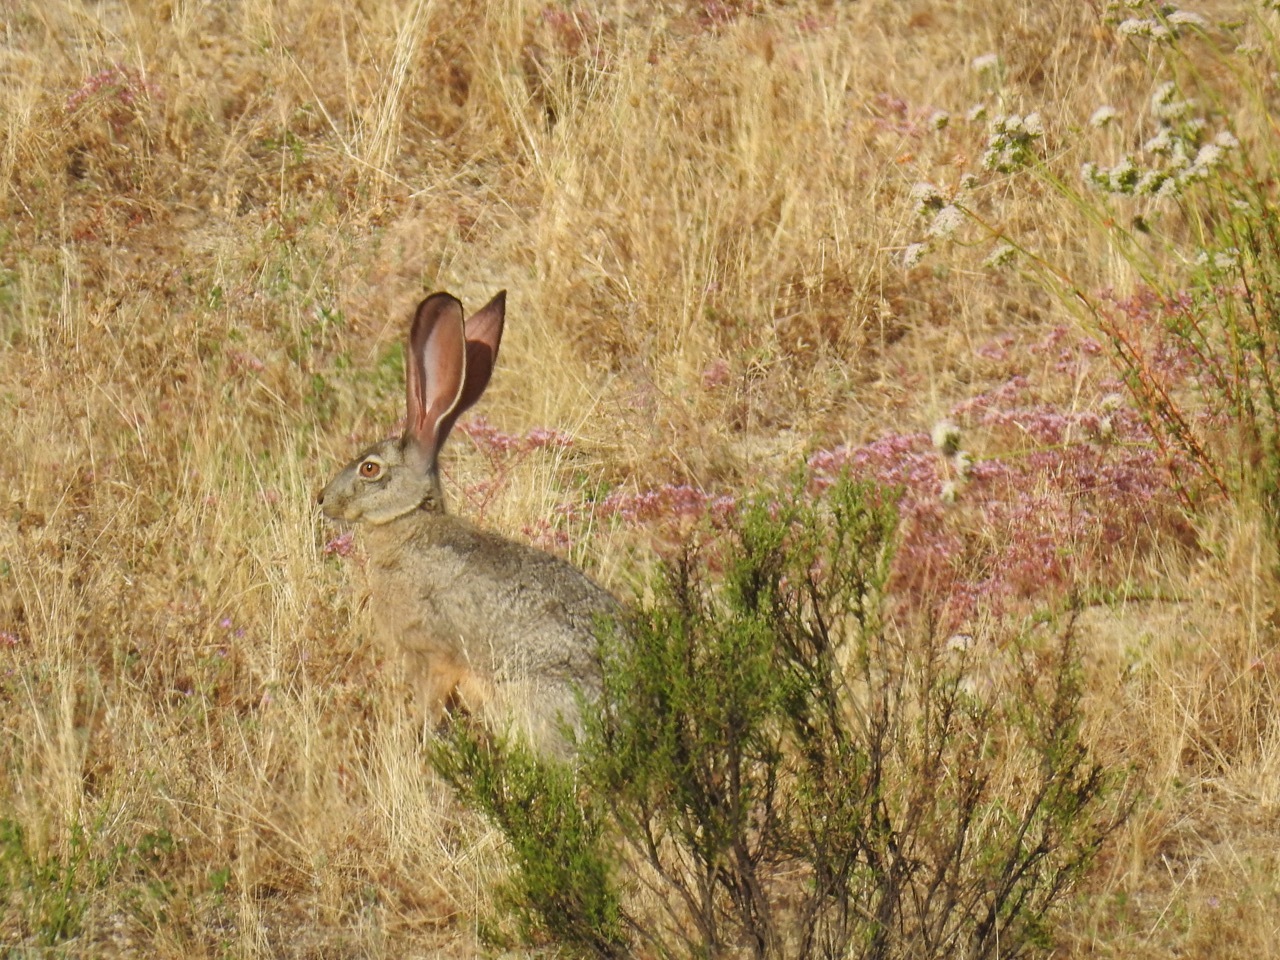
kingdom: Animalia
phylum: Chordata
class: Mammalia
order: Lagomorpha
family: Leporidae
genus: Lepus
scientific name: Lepus californicus
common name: Black-tailed jackrabbit
